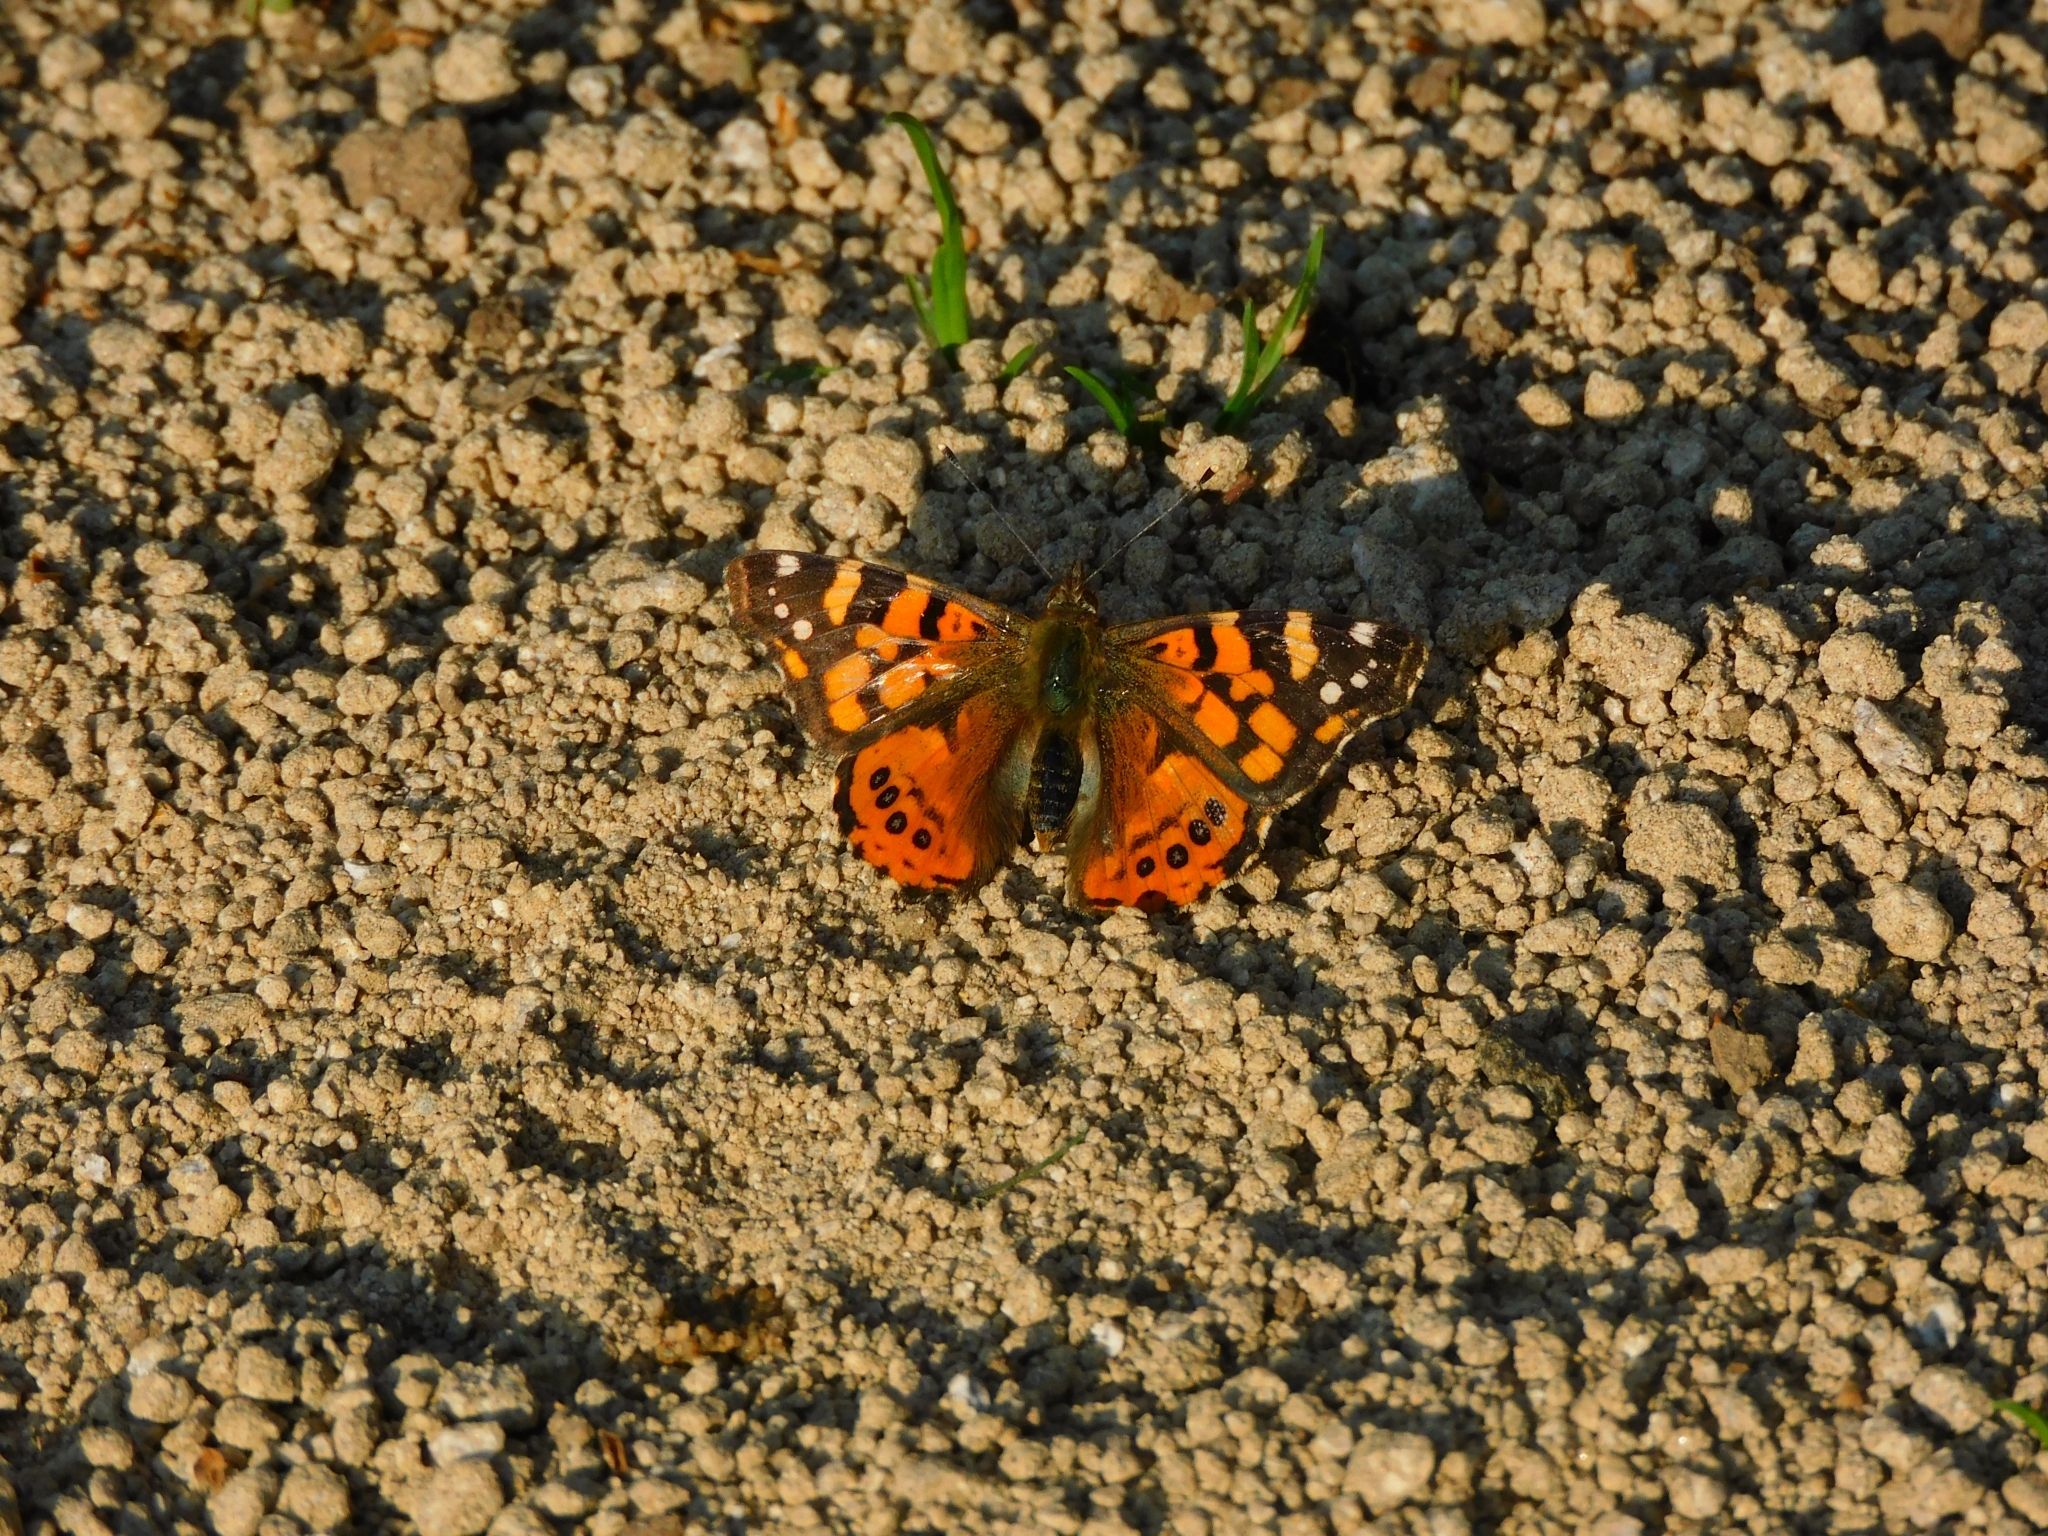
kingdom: Animalia
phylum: Arthropoda
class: Insecta
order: Lepidoptera
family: Nymphalidae
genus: Vanessa
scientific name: Vanessa carye
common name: Subtropical lady
